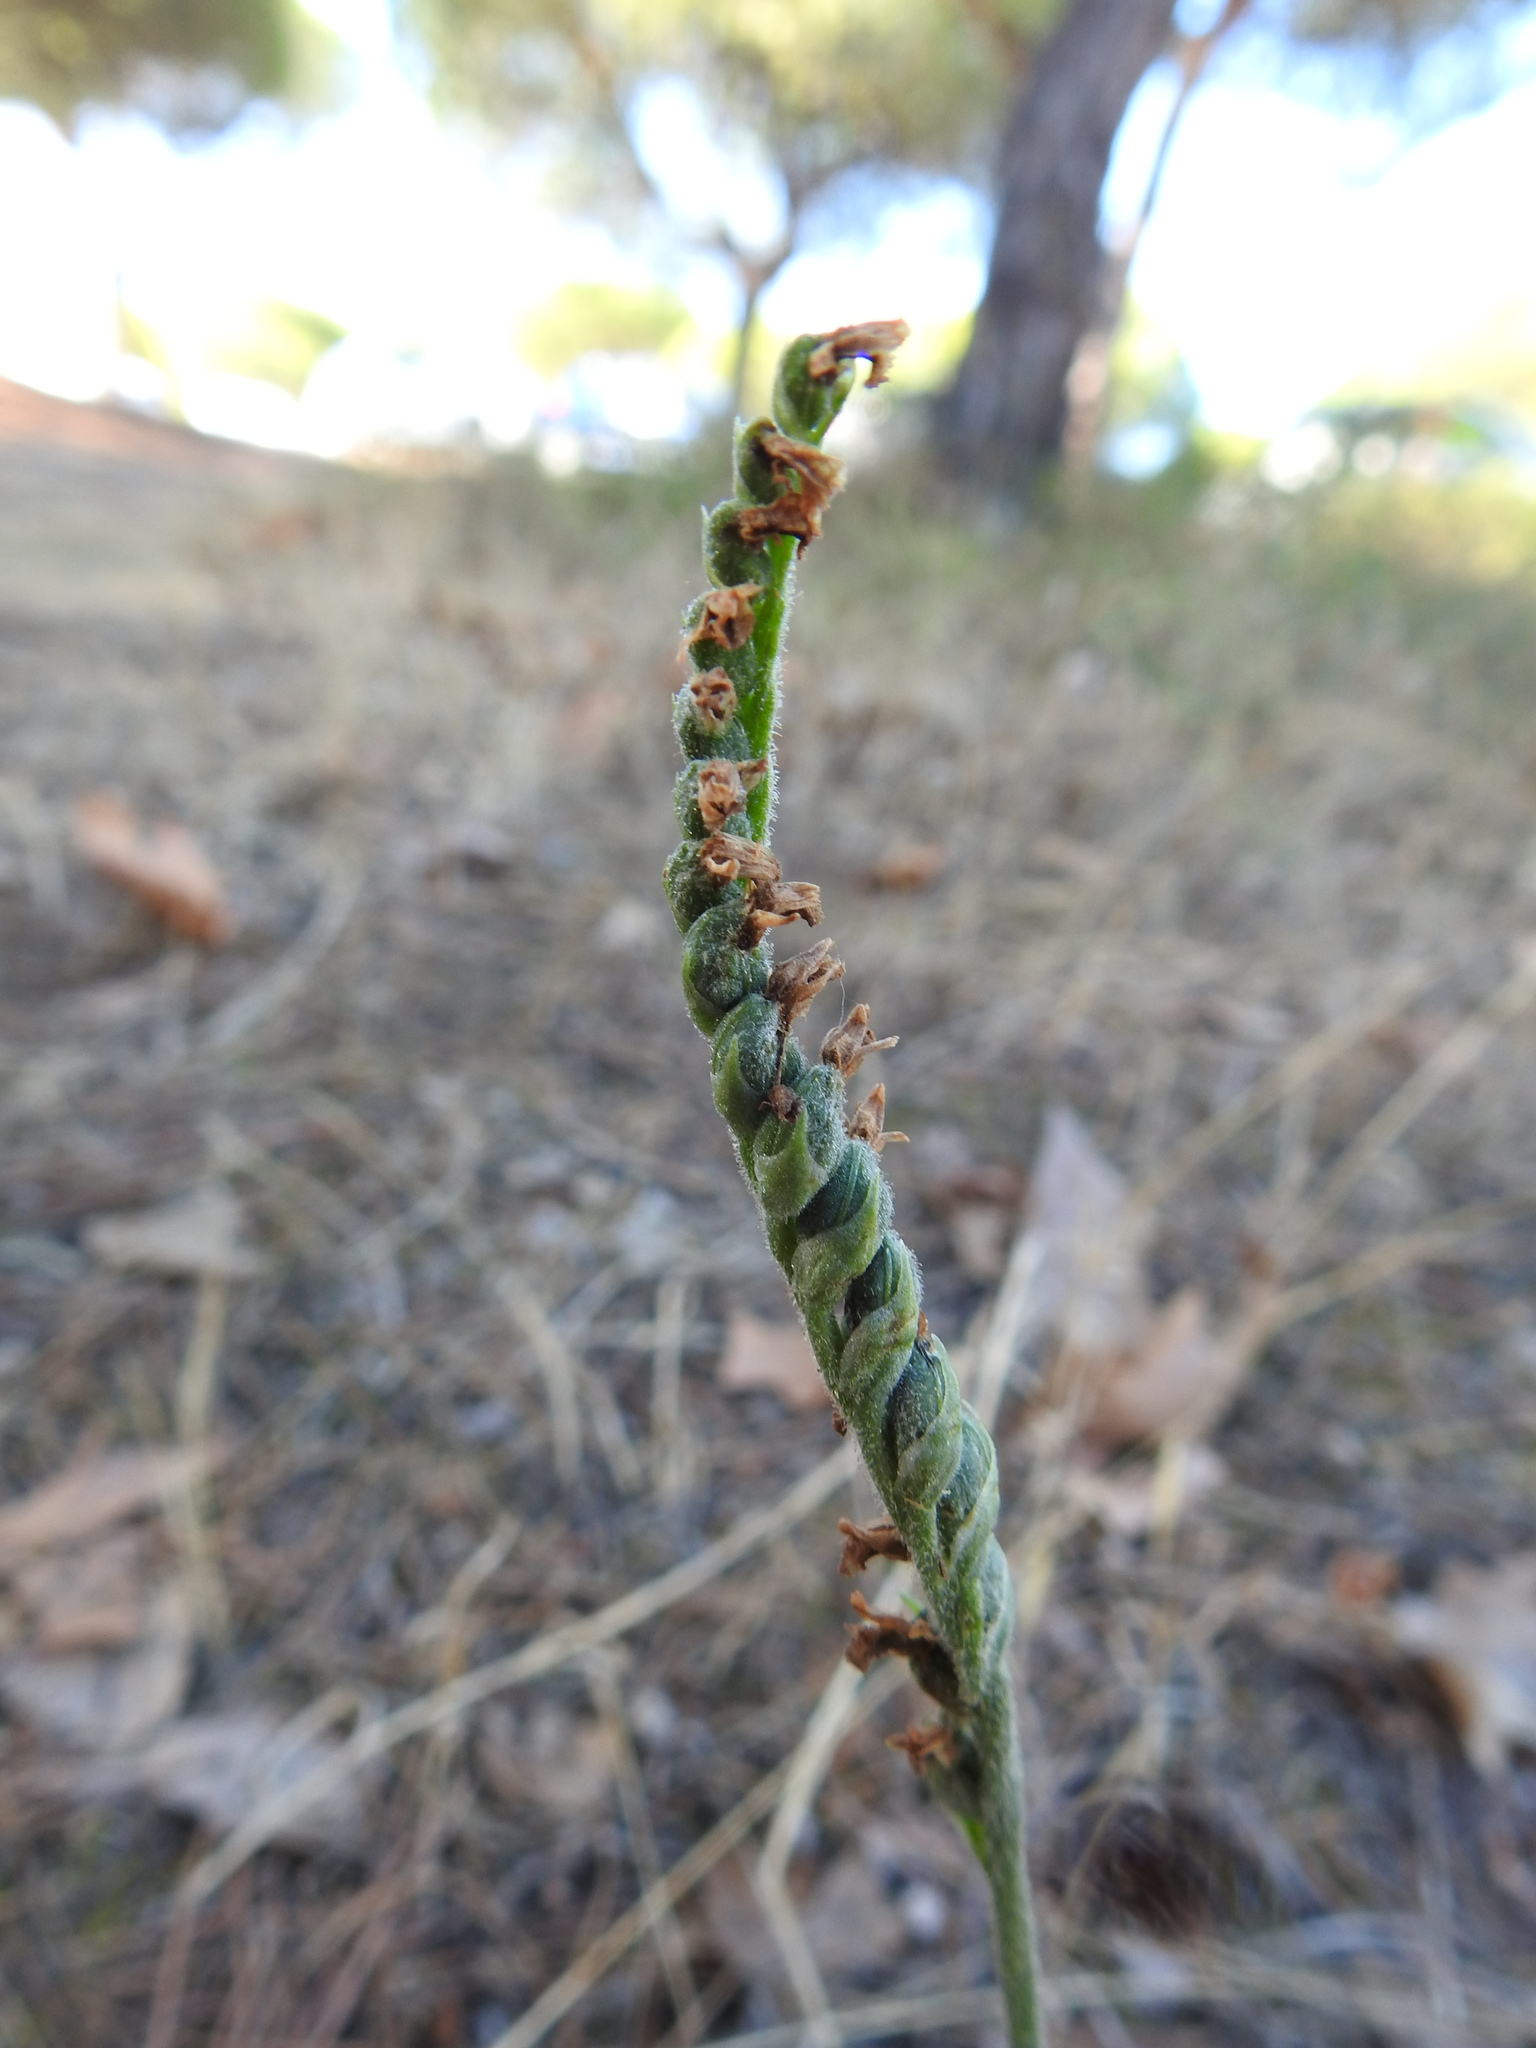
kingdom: Plantae
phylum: Tracheophyta
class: Liliopsida
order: Asparagales
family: Orchidaceae
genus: Spiranthes
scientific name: Spiranthes spiralis
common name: Autumn lady's-tresses
